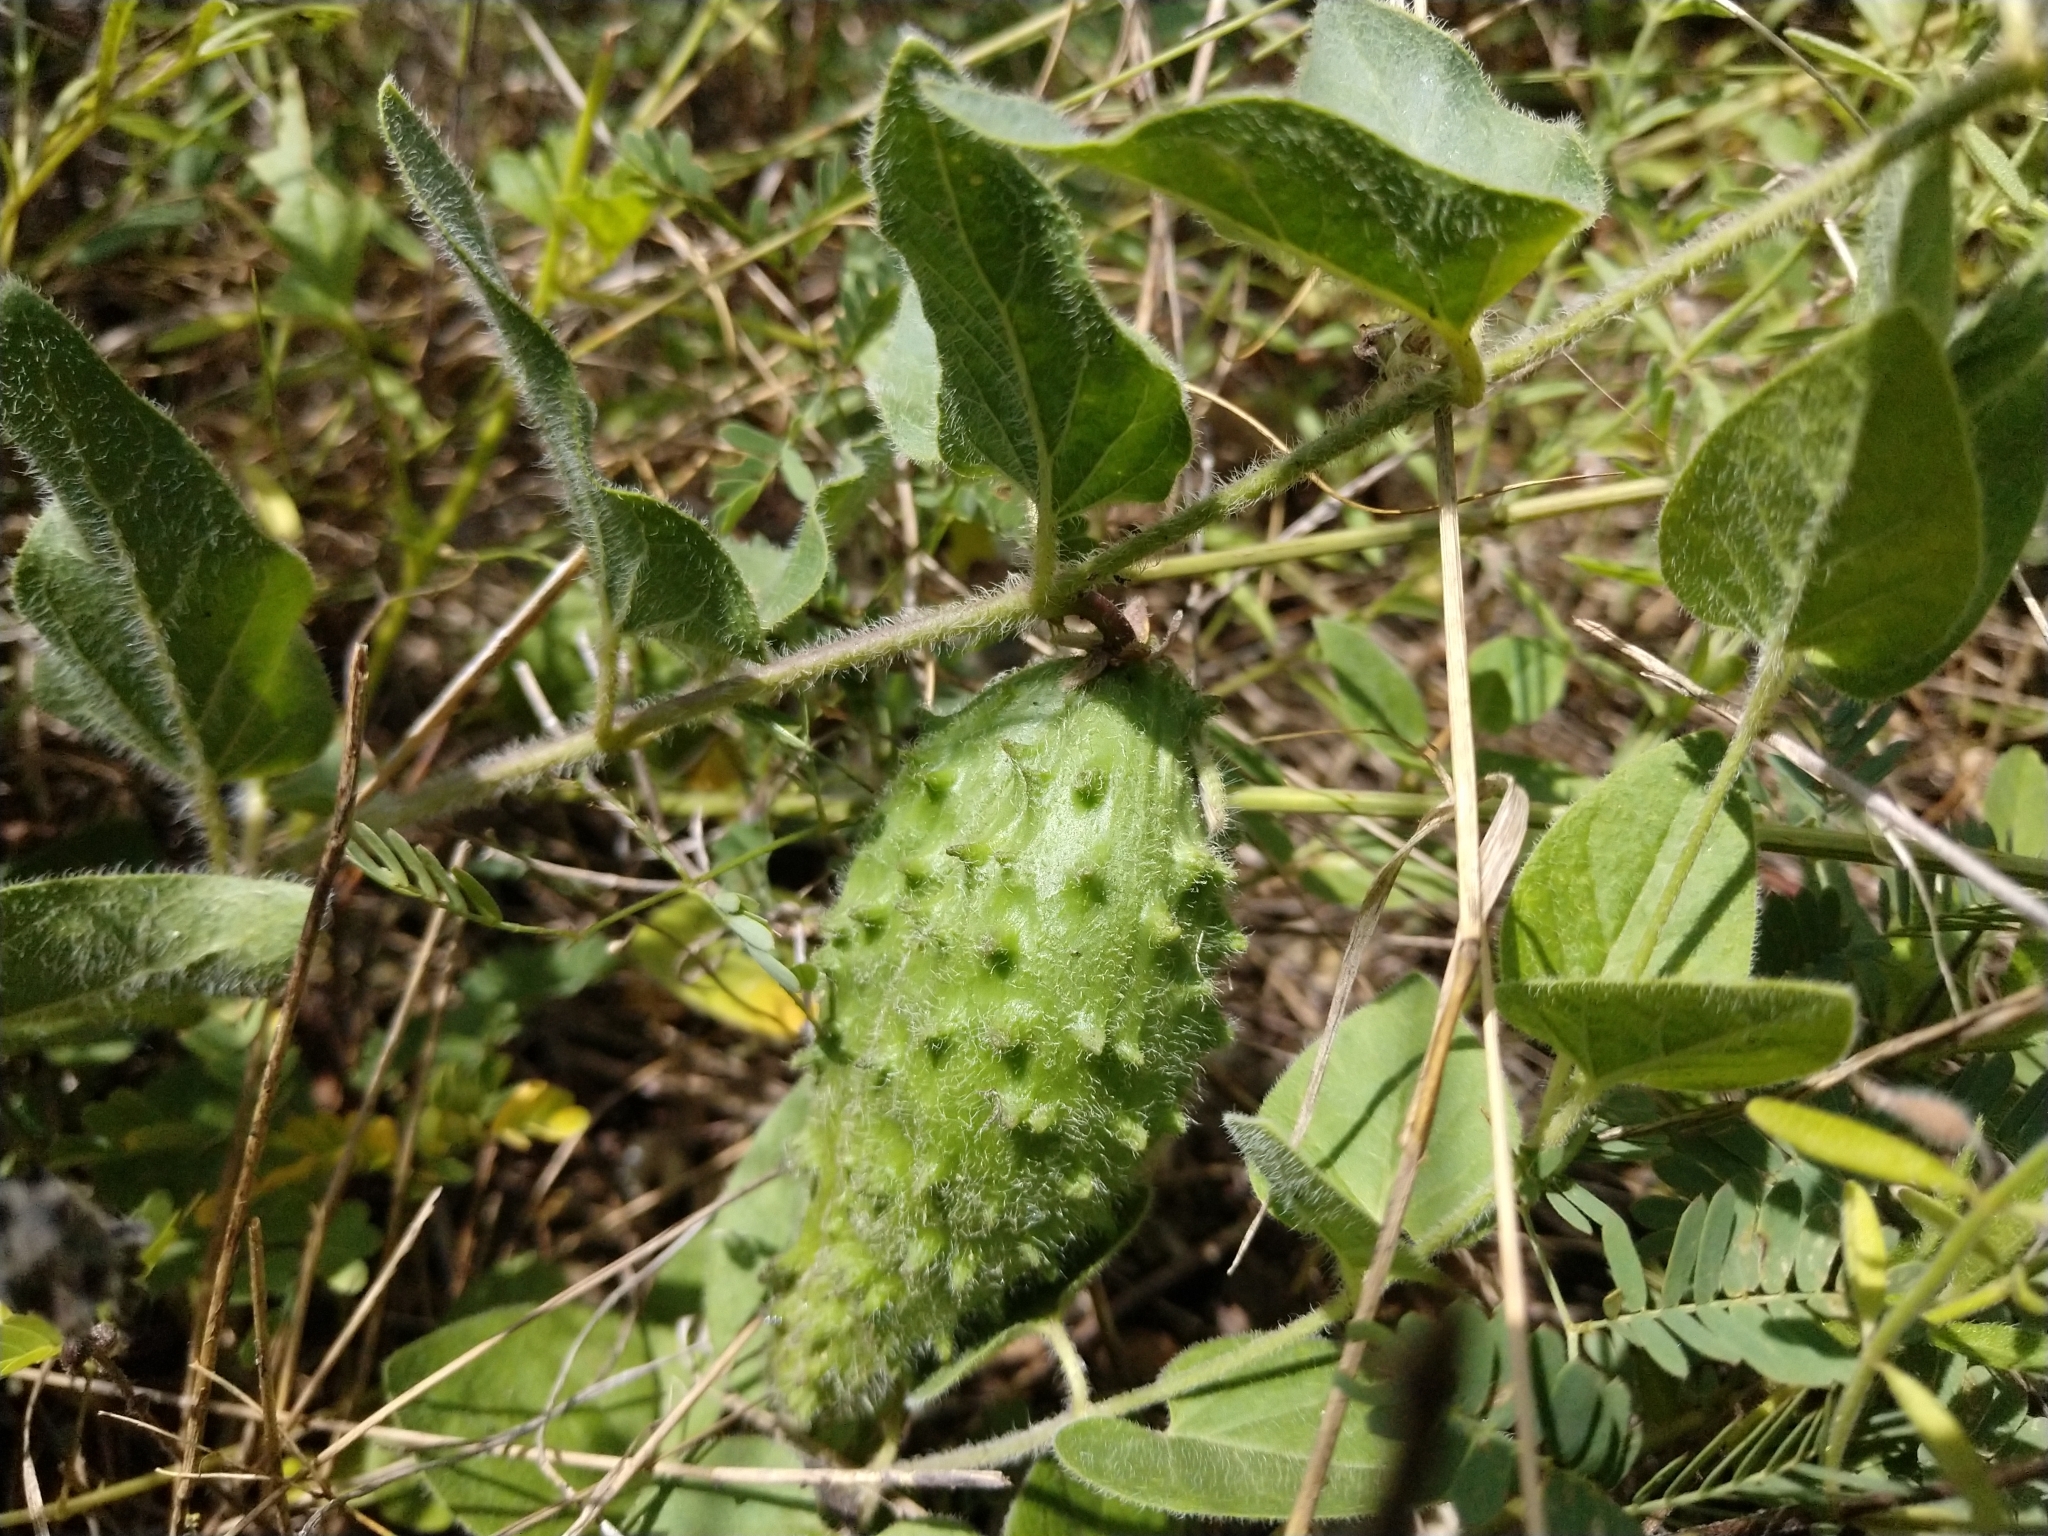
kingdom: Plantae
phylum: Tracheophyta
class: Magnoliopsida
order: Gentianales
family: Apocynaceae
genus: Chthamalia
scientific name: Chthamalia biflora
